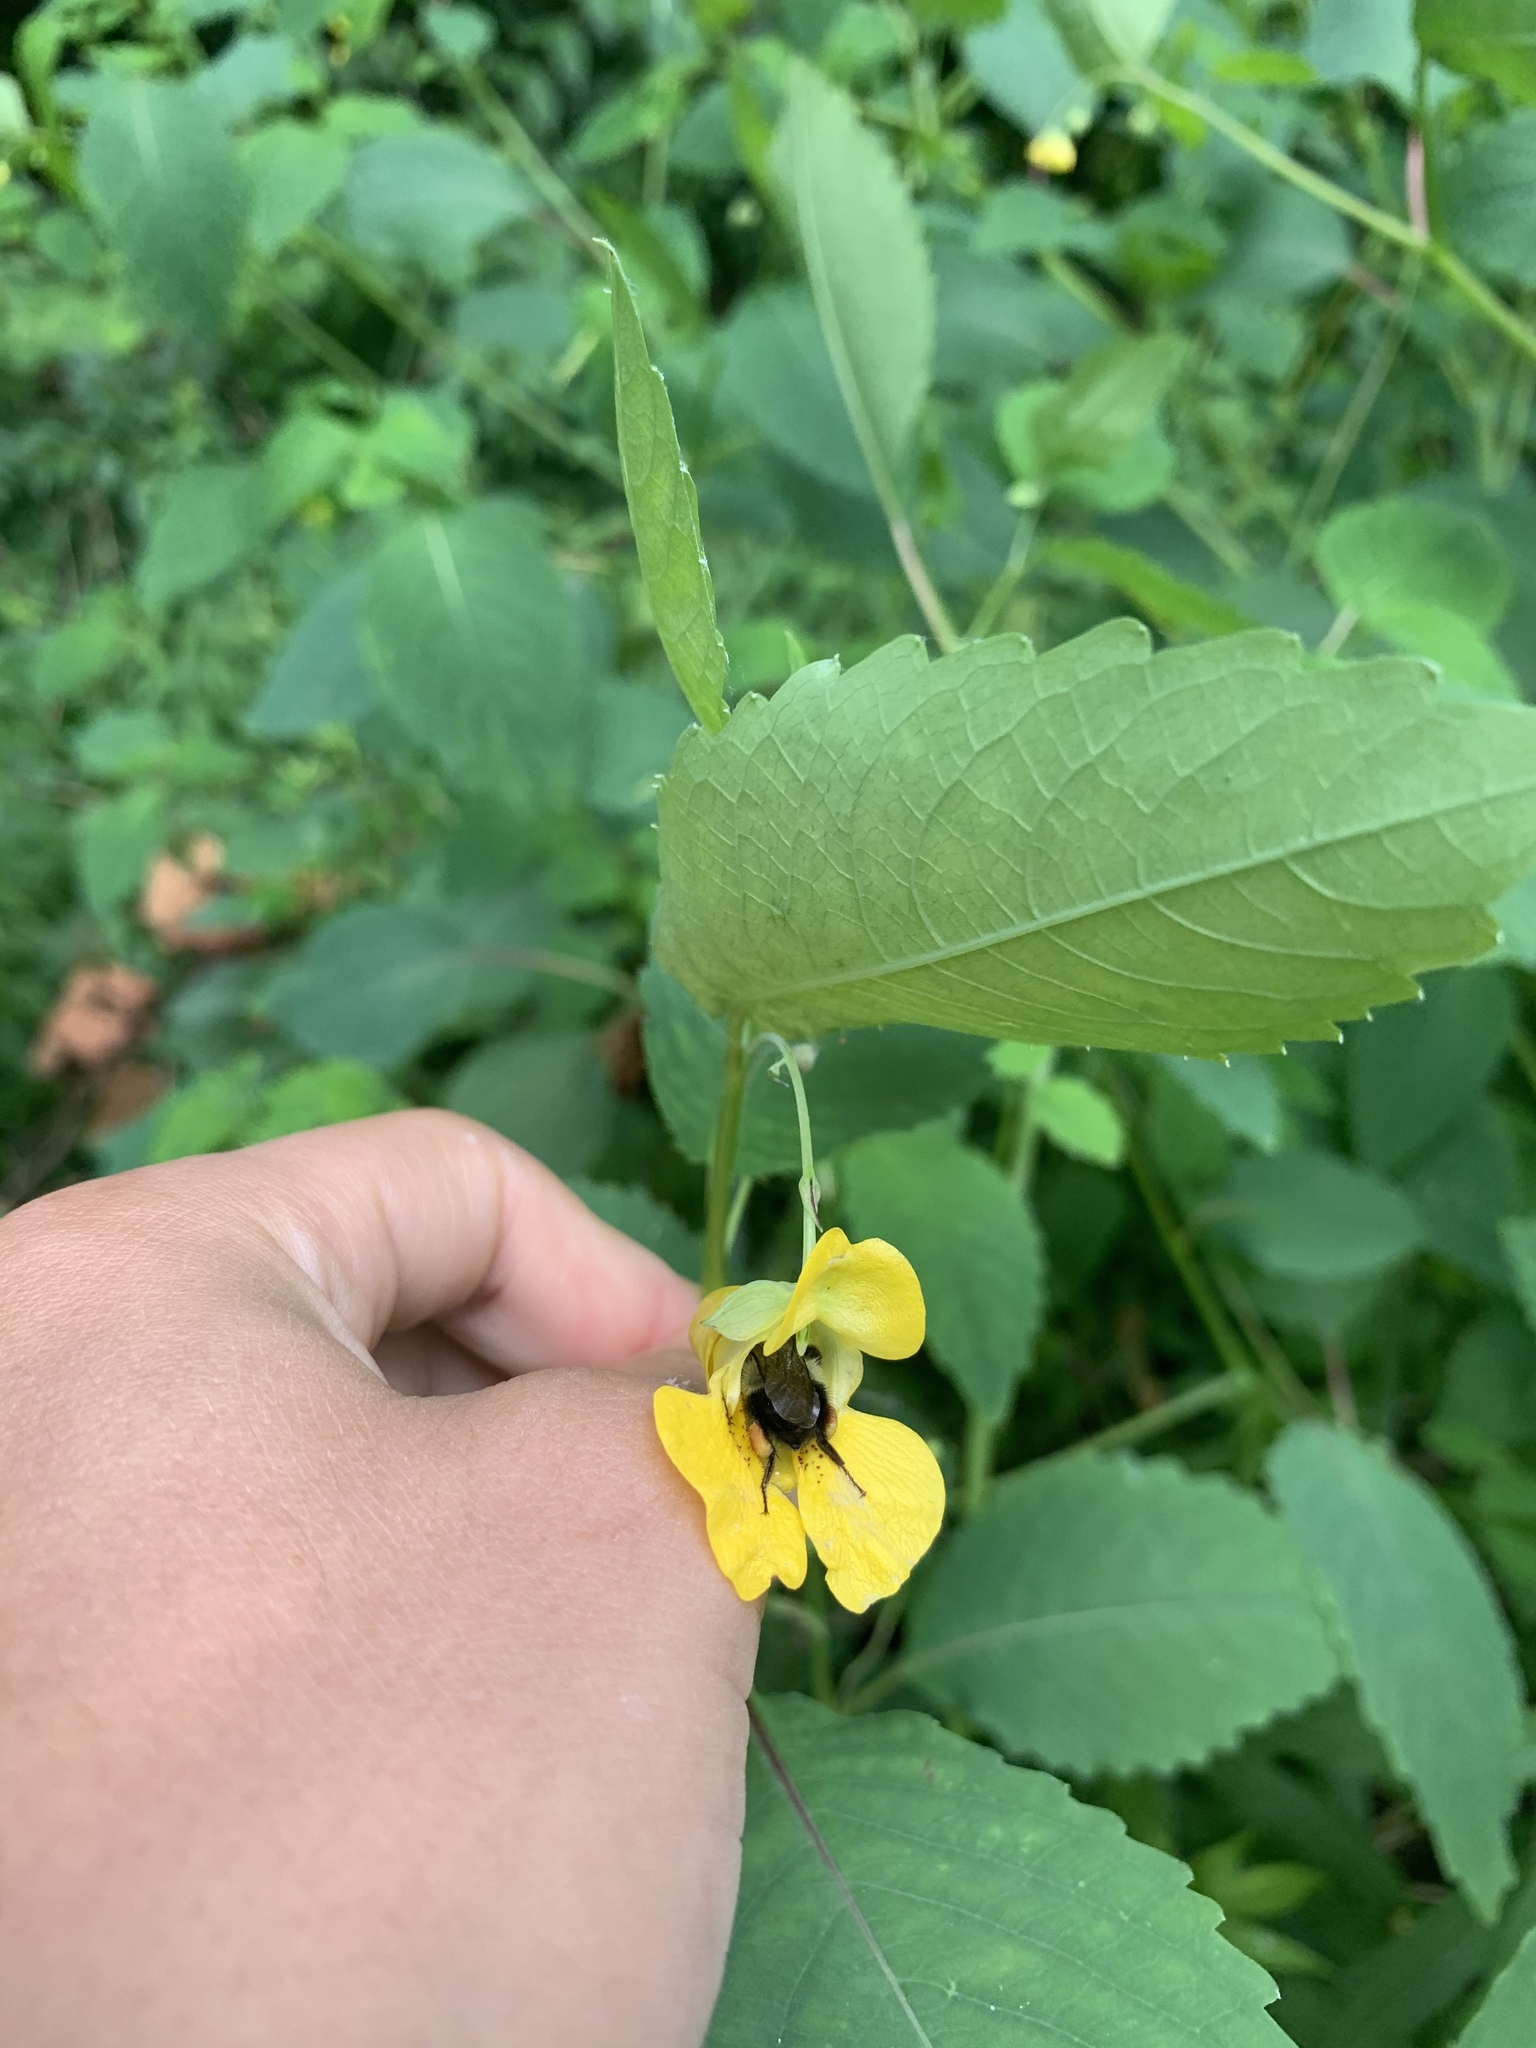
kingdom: Plantae
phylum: Tracheophyta
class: Magnoliopsida
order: Ericales
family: Balsaminaceae
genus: Impatiens
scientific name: Impatiens pallida
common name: Pale snapweed
